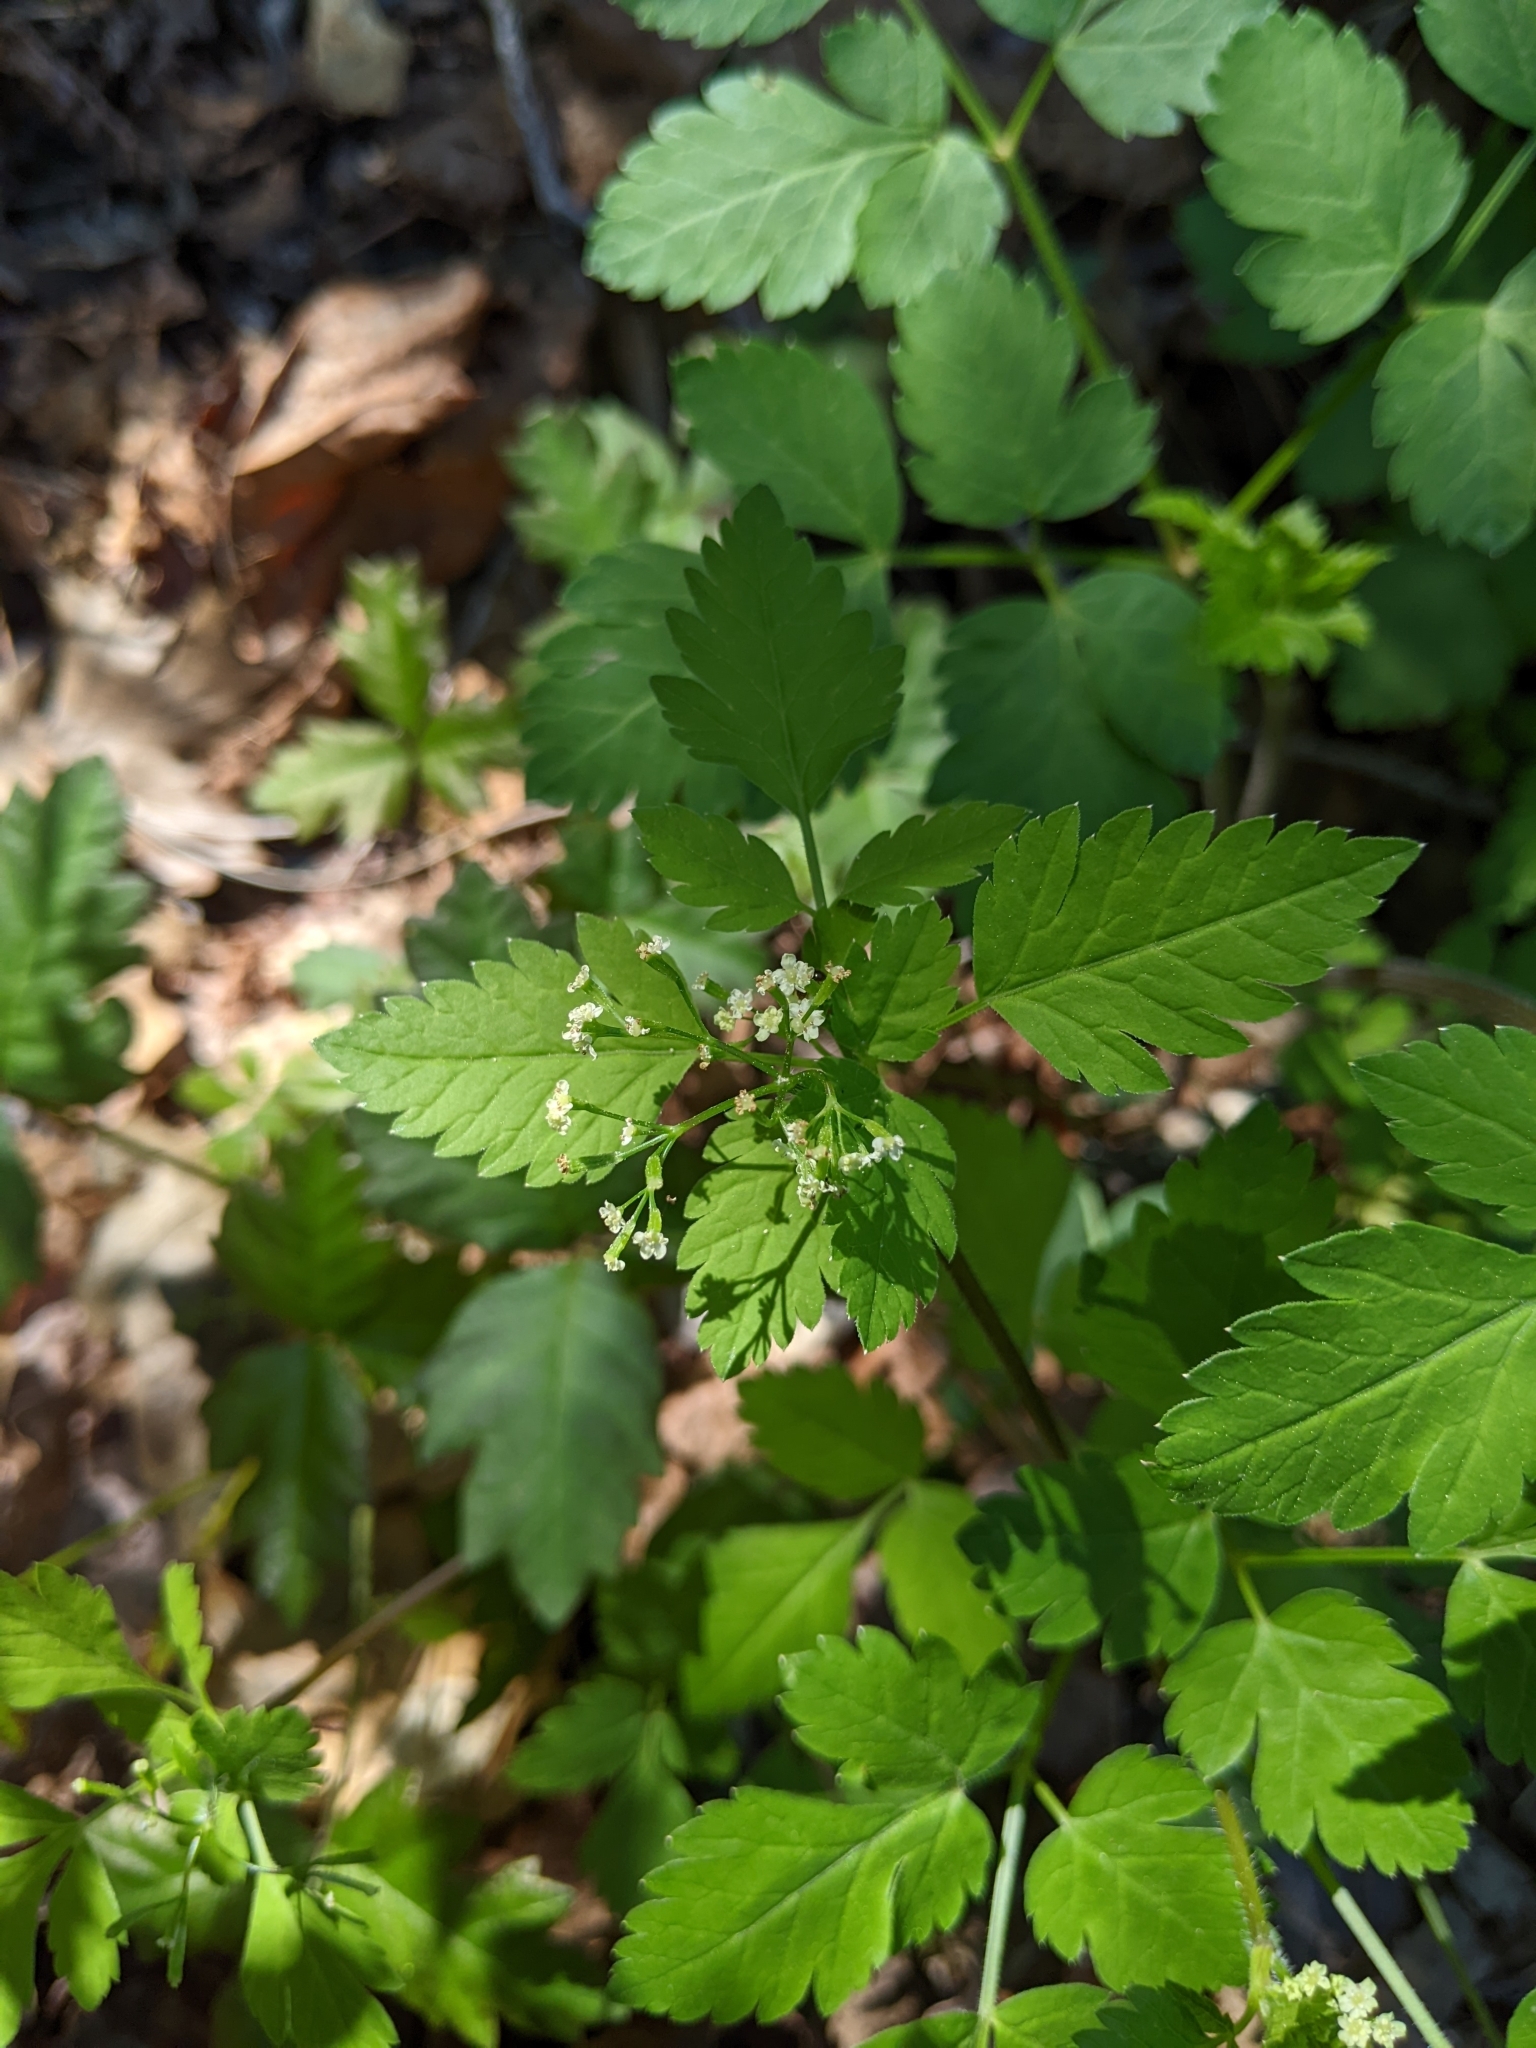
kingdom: Plantae
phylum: Tracheophyta
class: Magnoliopsida
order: Apiales
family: Apiaceae
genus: Osmorhiza
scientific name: Osmorhiza berteroi
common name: Mountain sweet cicely
